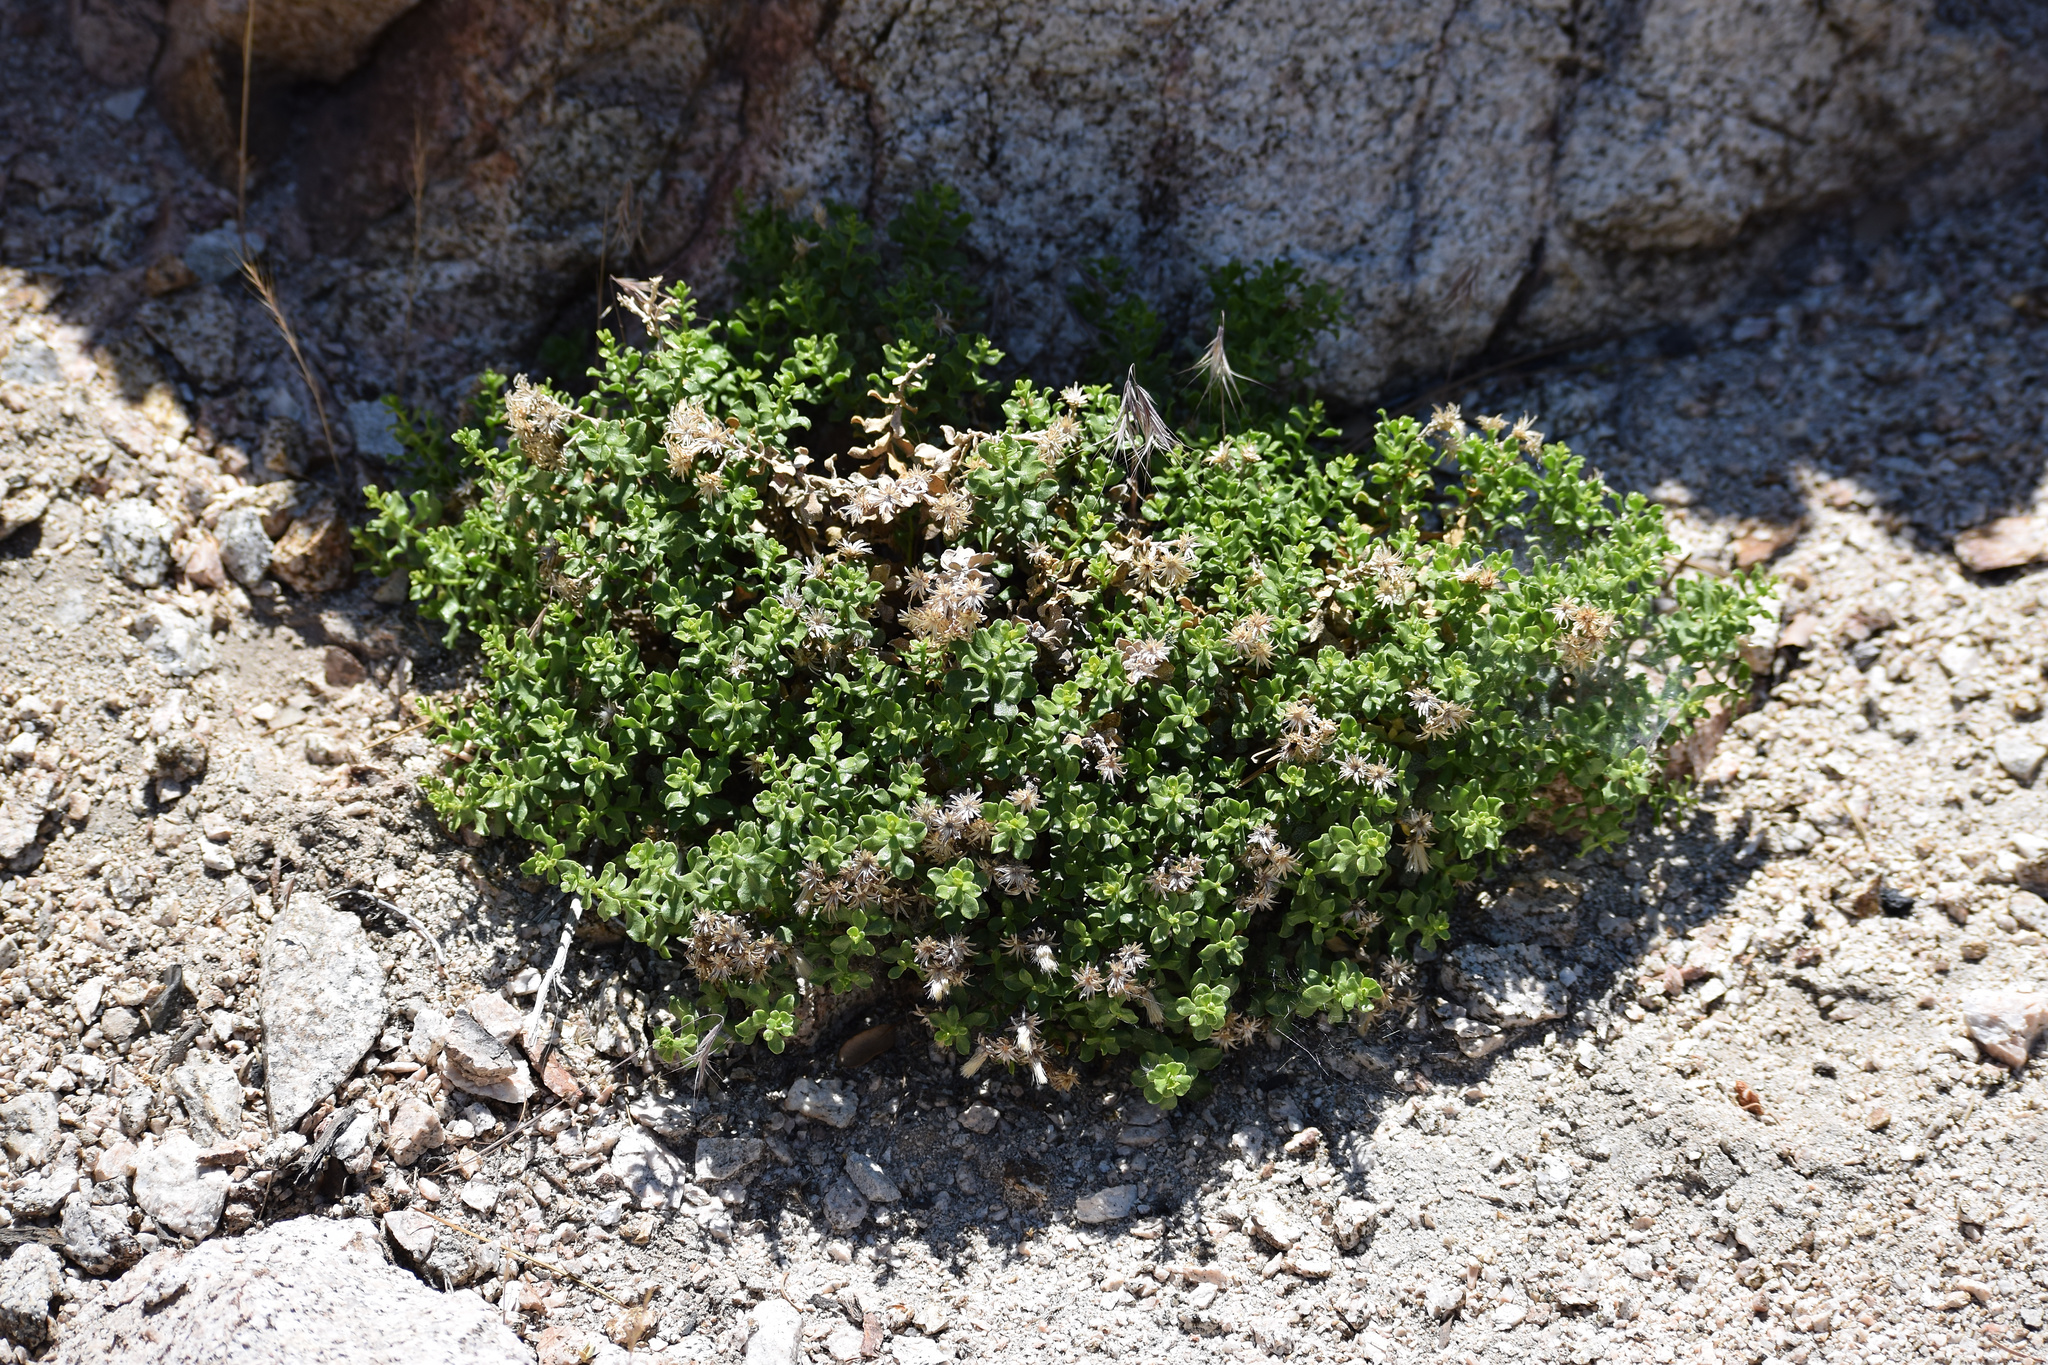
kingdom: Plantae
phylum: Tracheophyta
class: Magnoliopsida
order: Asterales
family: Asteraceae
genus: Ericameria
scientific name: Ericameria cuneata
